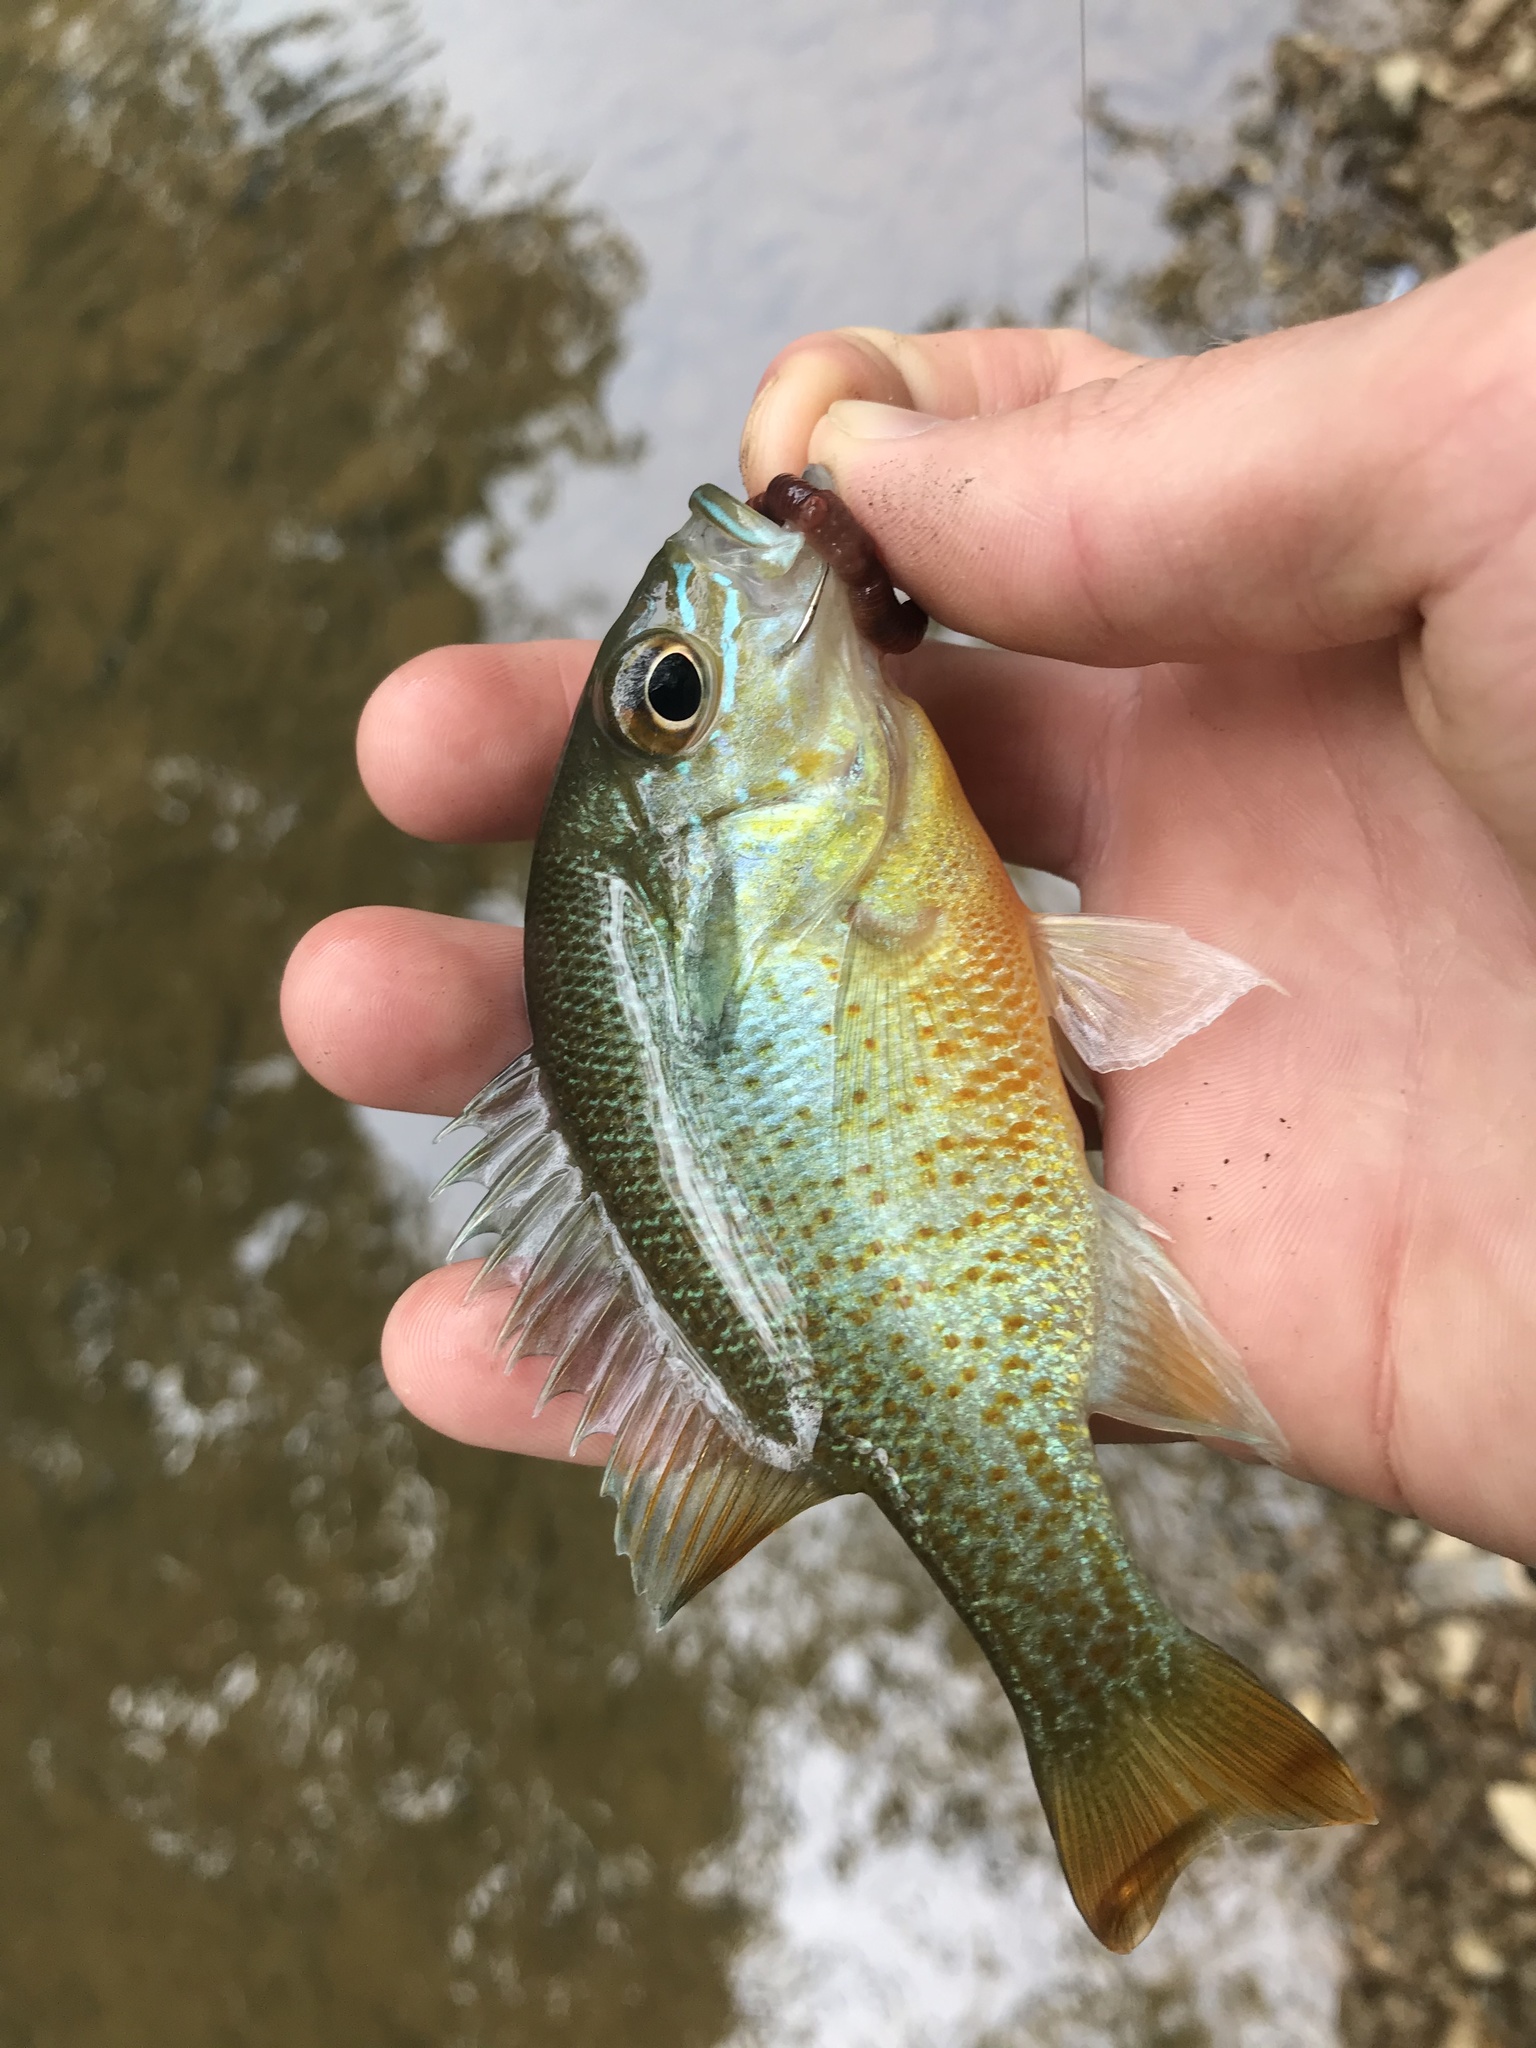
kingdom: Animalia
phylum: Chordata
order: Perciformes
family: Centrarchidae
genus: Lepomis
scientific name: Lepomis auritus
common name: Redbreast sunfish
